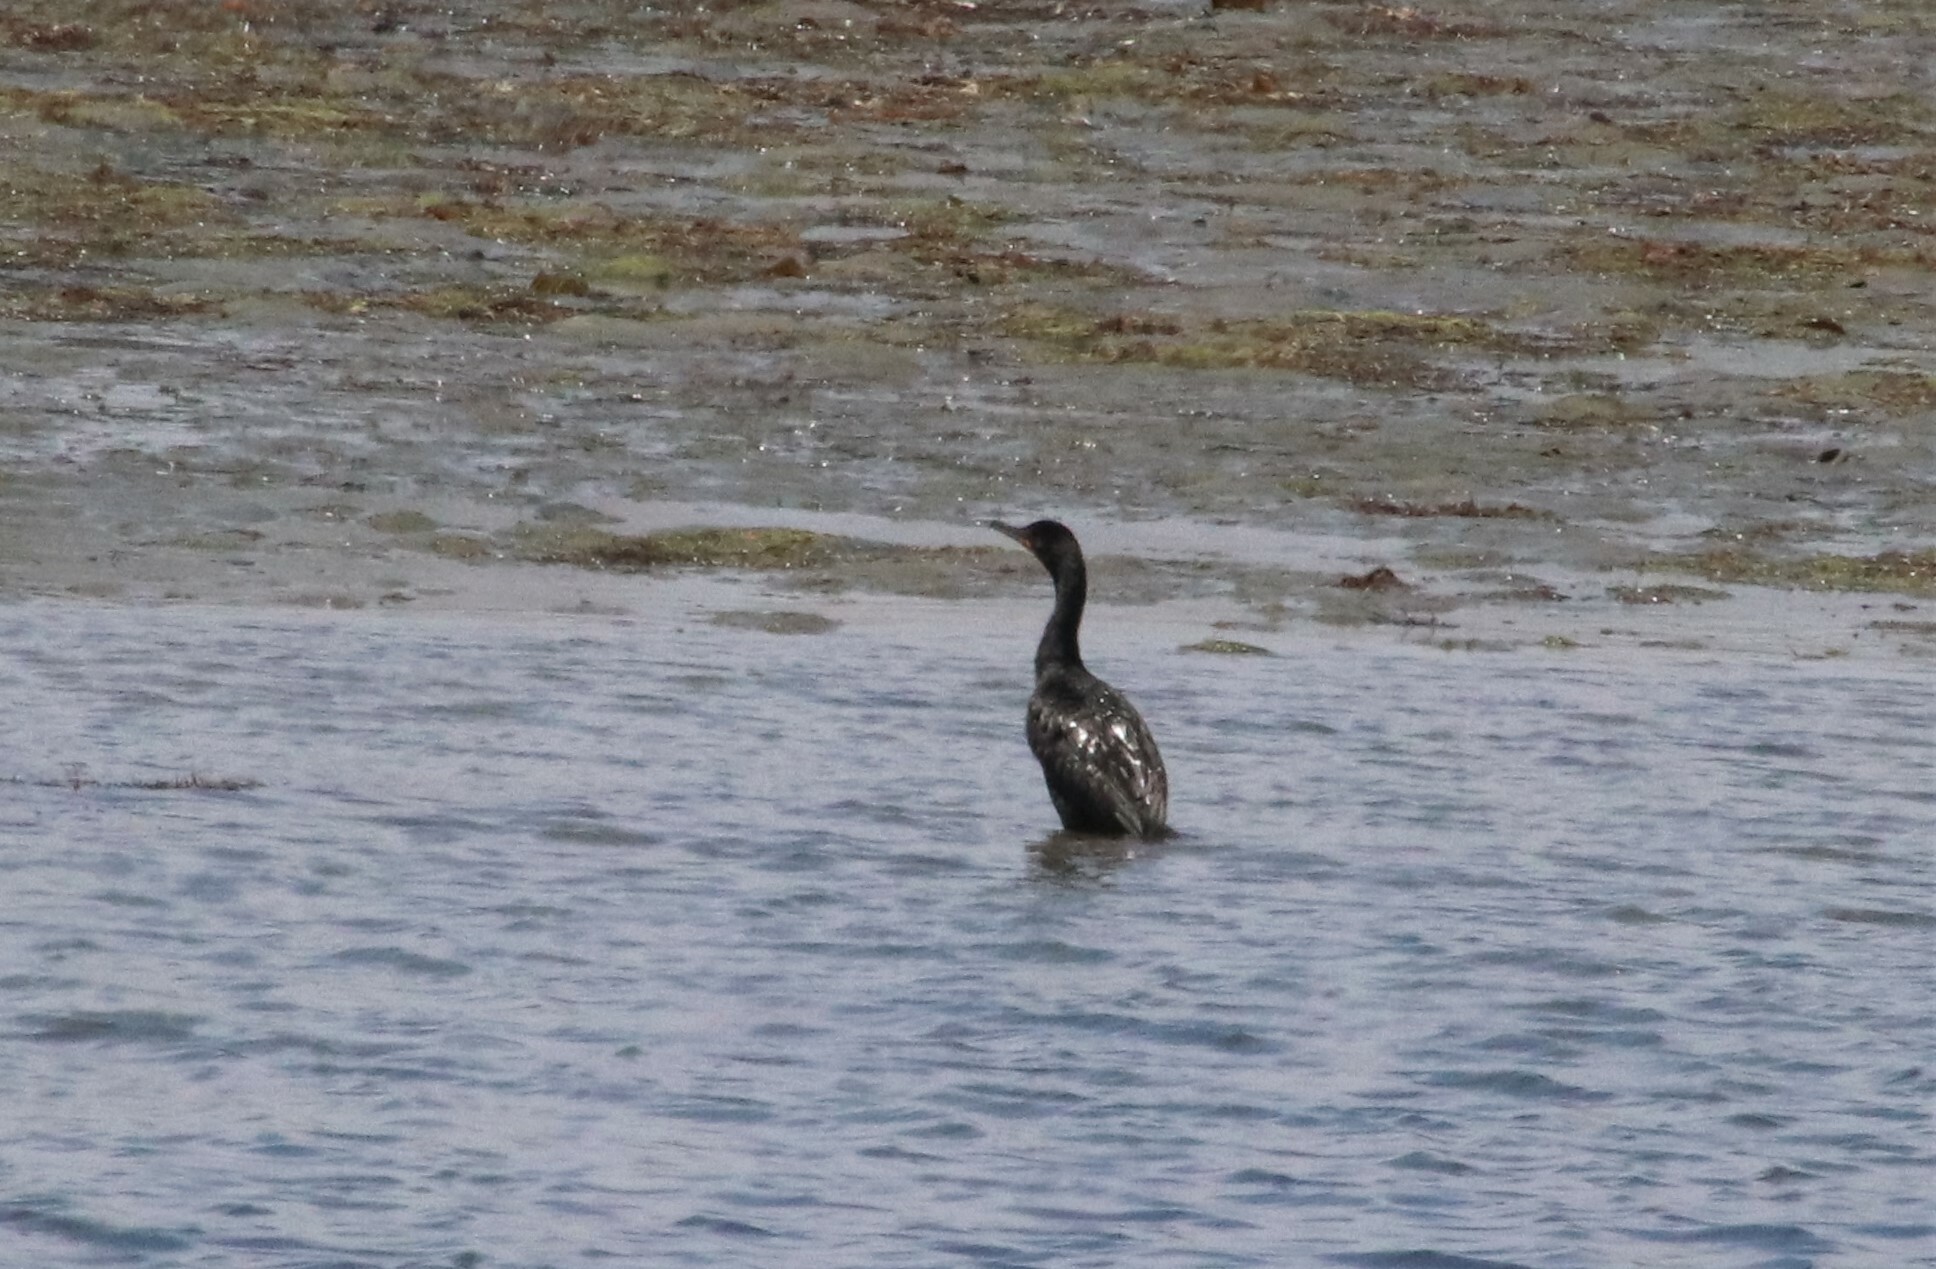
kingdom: Animalia
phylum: Chordata
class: Aves
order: Suliformes
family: Phalacrocoracidae
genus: Phalacrocorax
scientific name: Phalacrocorax auritus
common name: Double-crested cormorant
